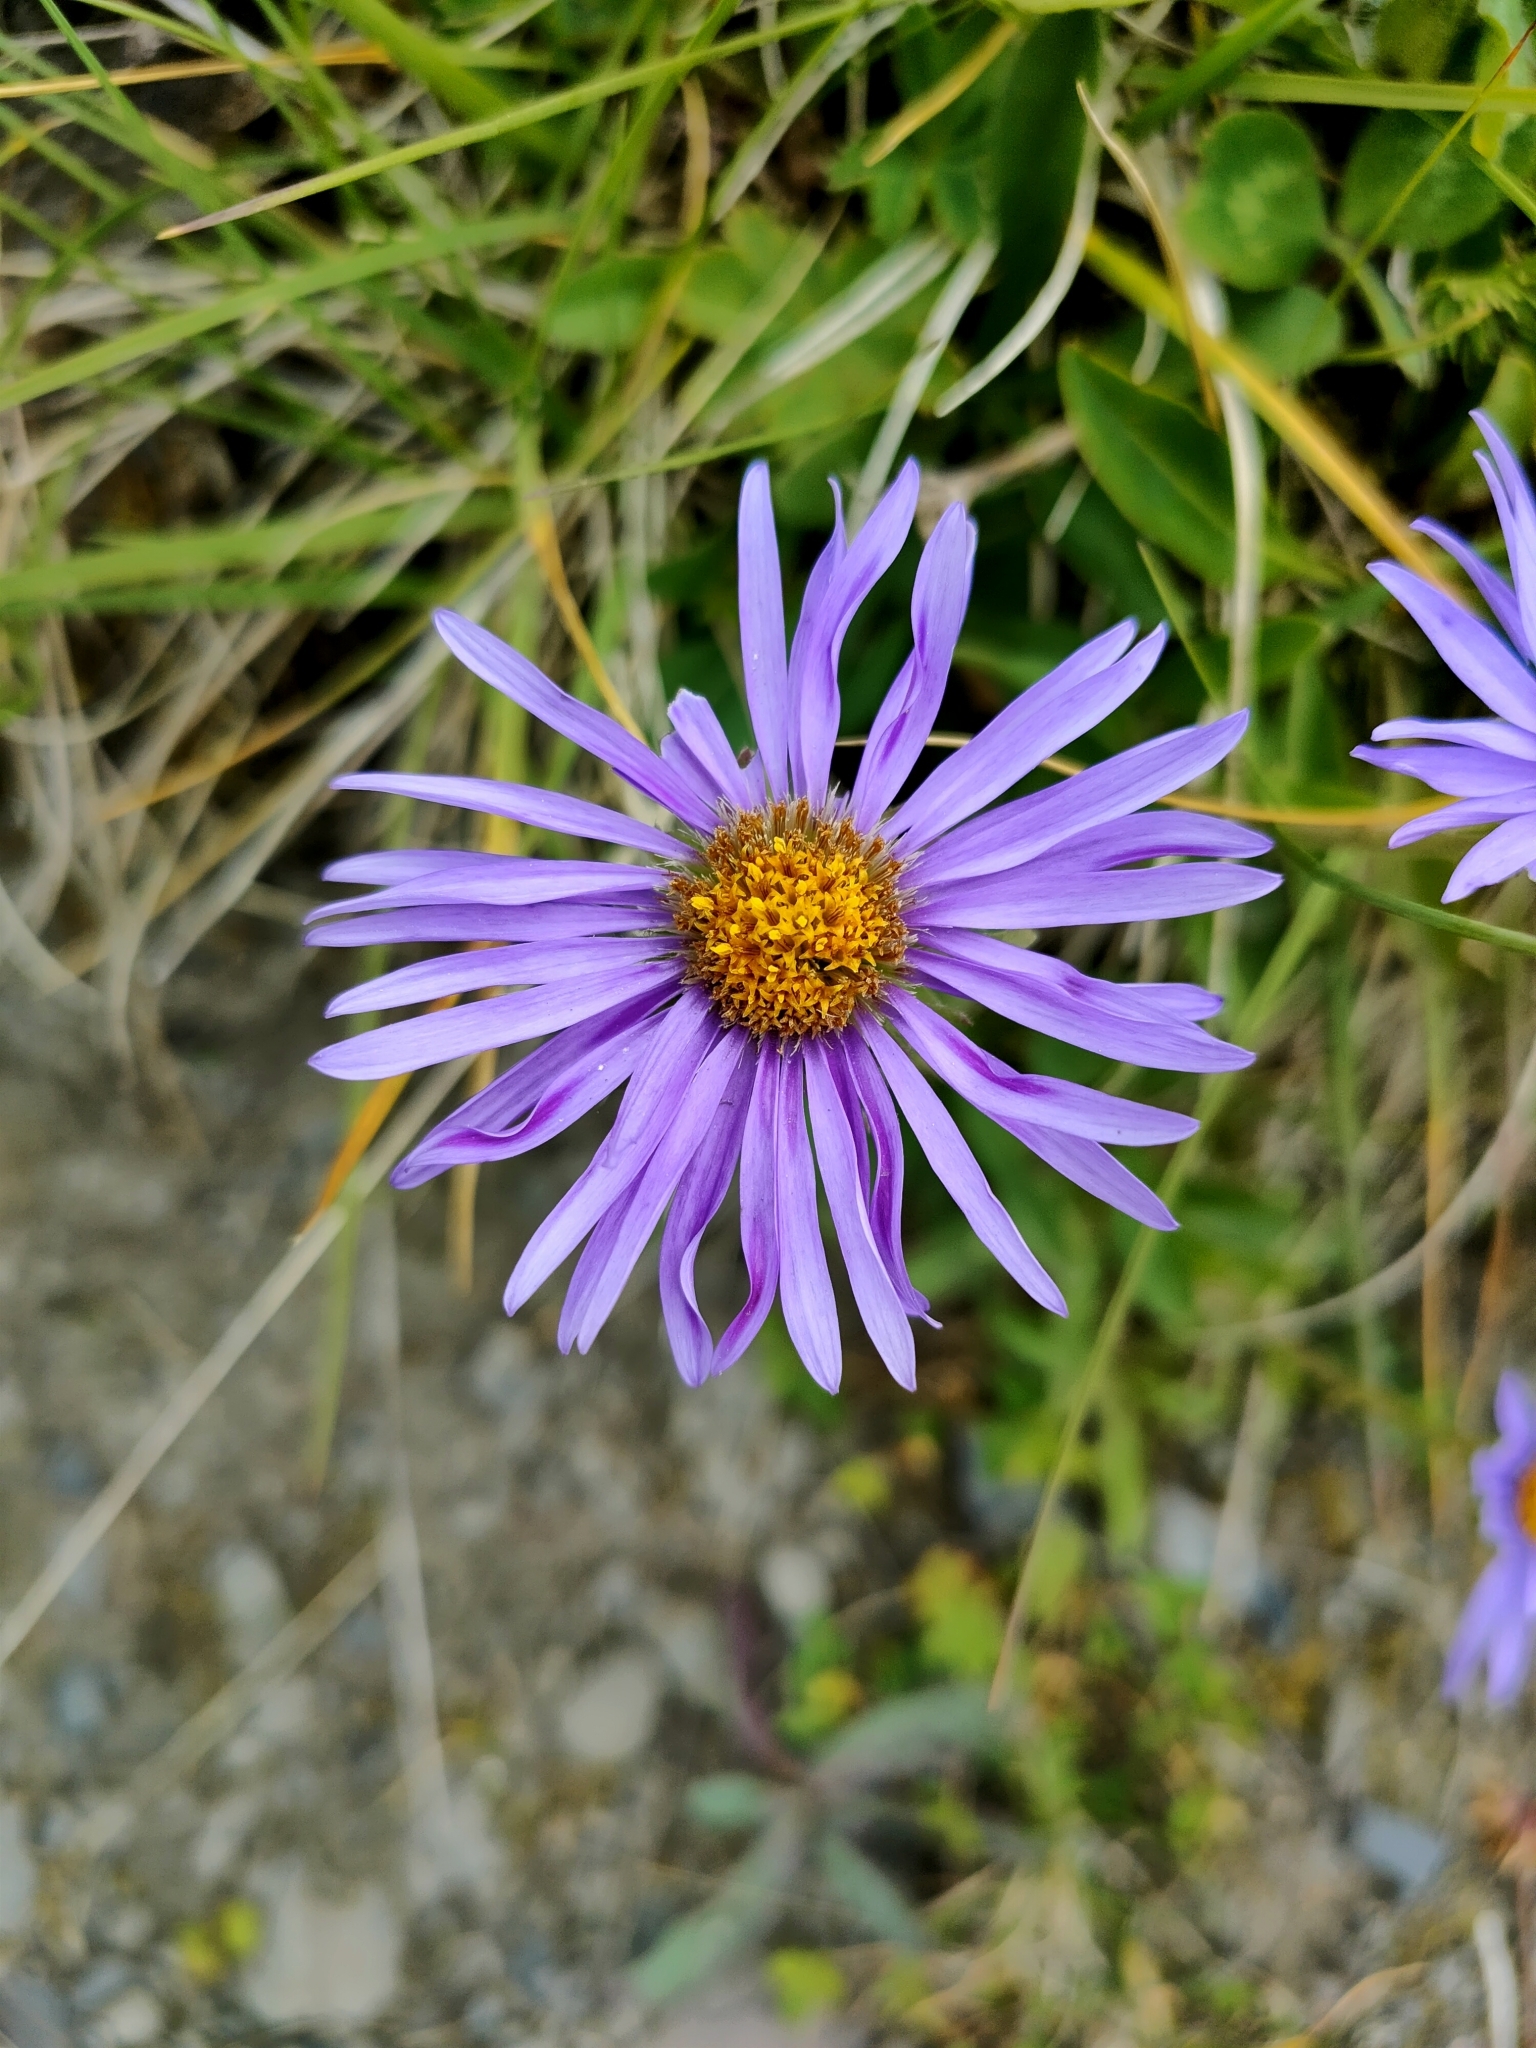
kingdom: Plantae
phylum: Tracheophyta
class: Magnoliopsida
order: Asterales
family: Asteraceae
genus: Aster
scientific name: Aster alpinus
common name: Alpine aster
